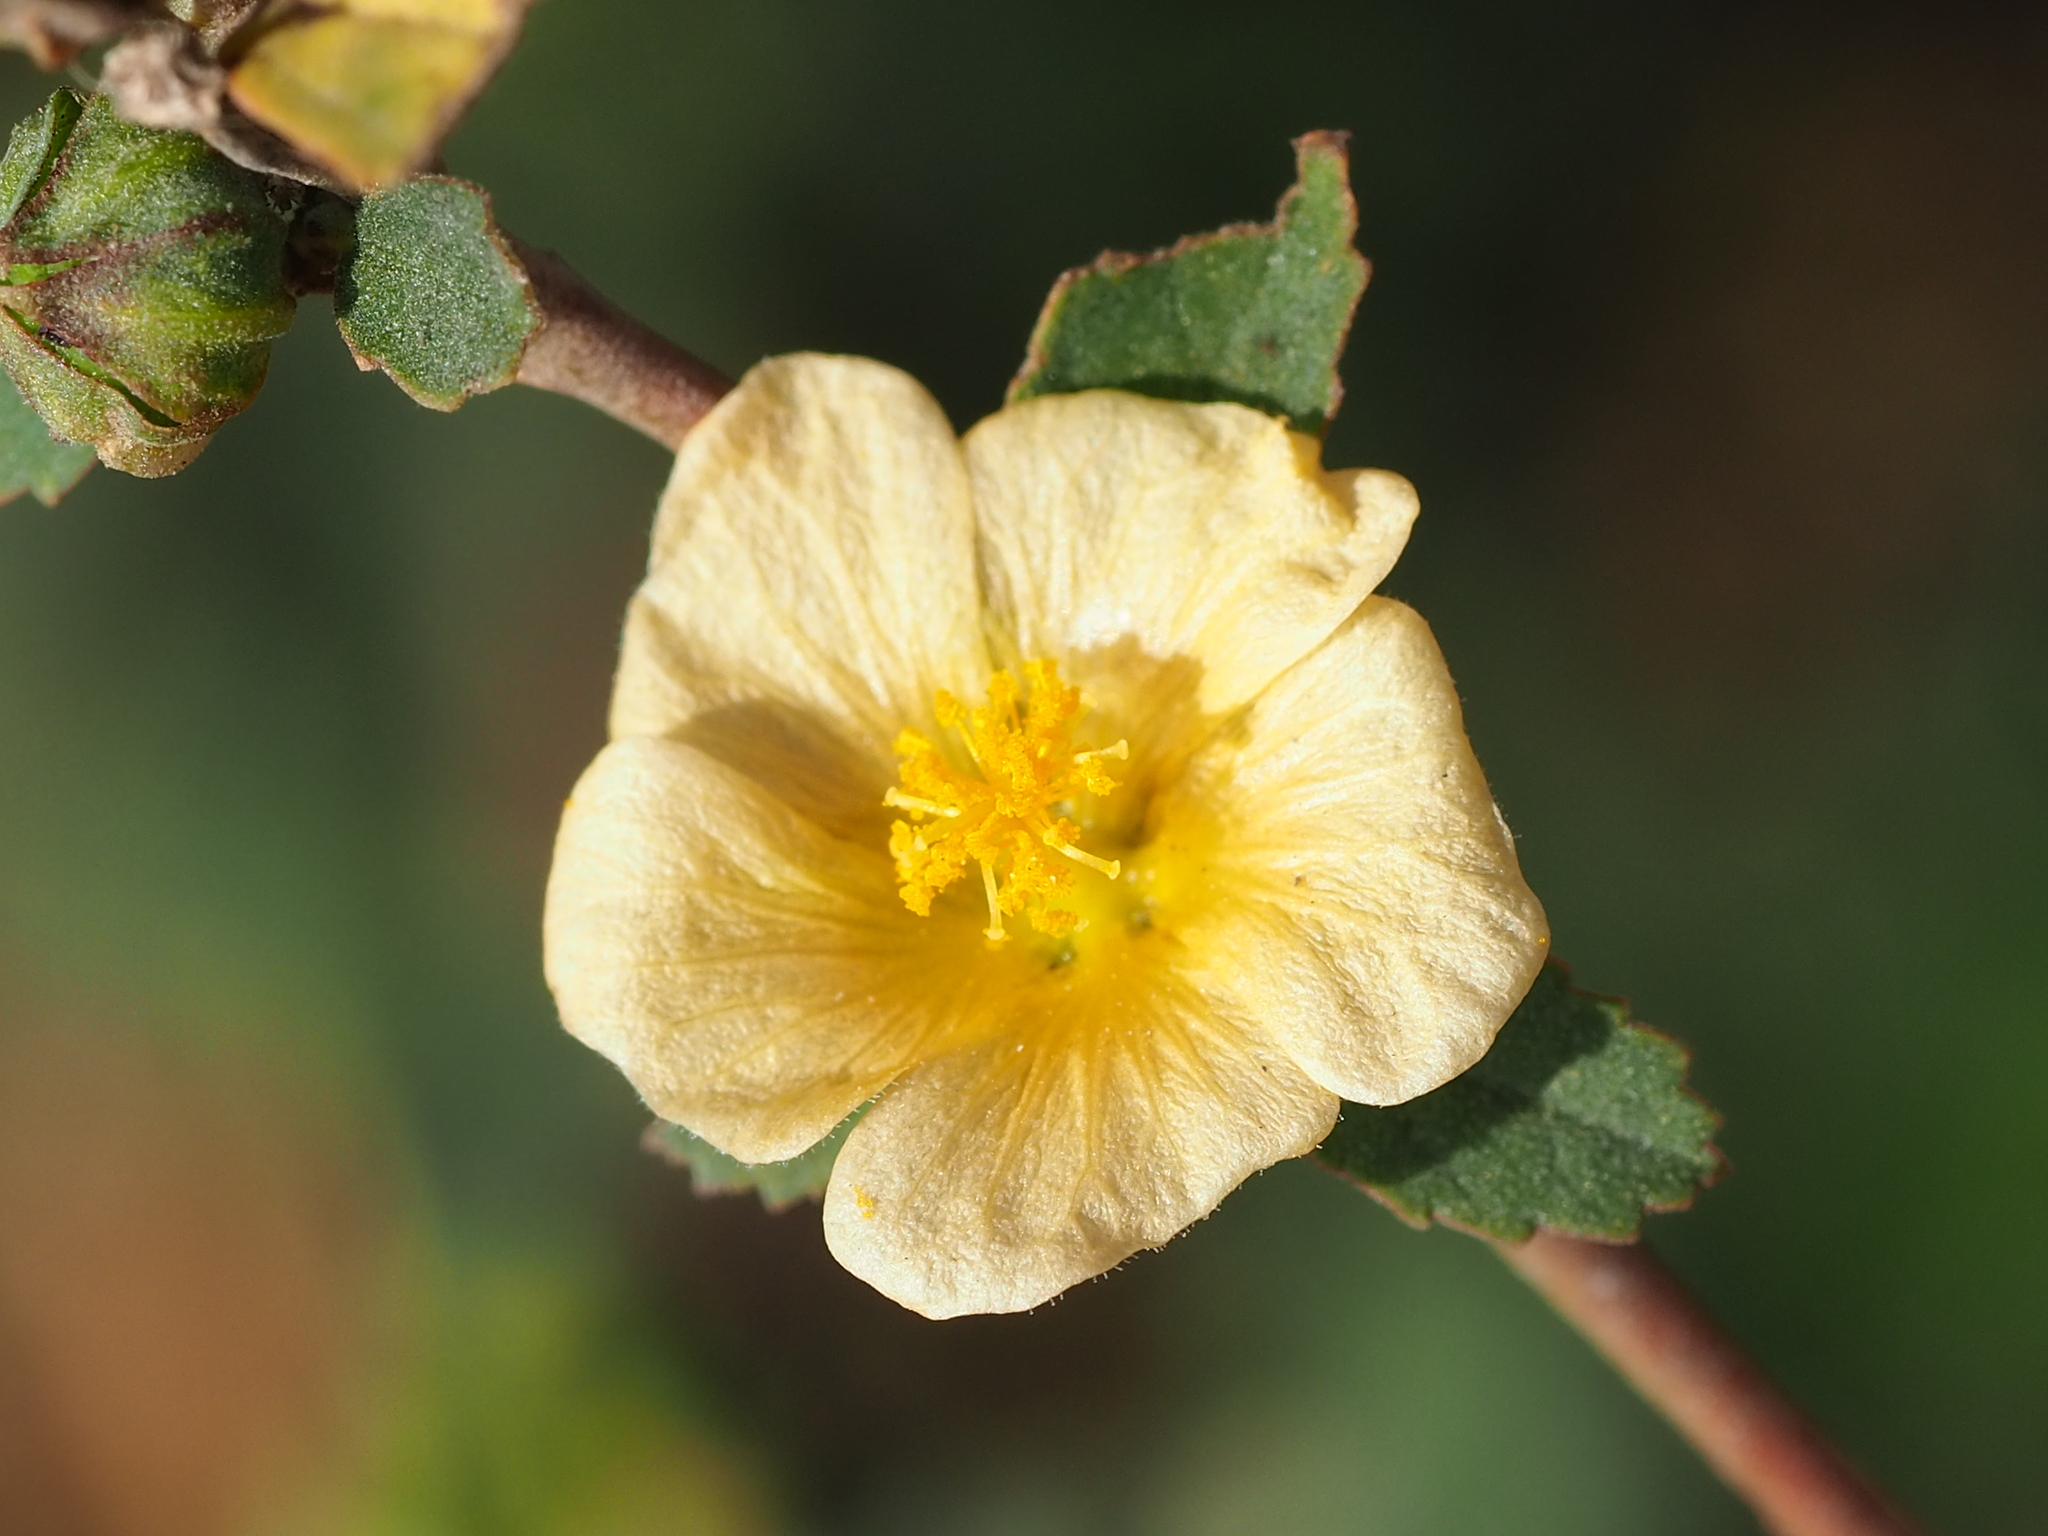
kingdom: Plantae
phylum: Tracheophyta
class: Magnoliopsida
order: Malvales
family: Malvaceae
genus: Sida
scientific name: Sida rhombifolia
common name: Queensland-hemp
